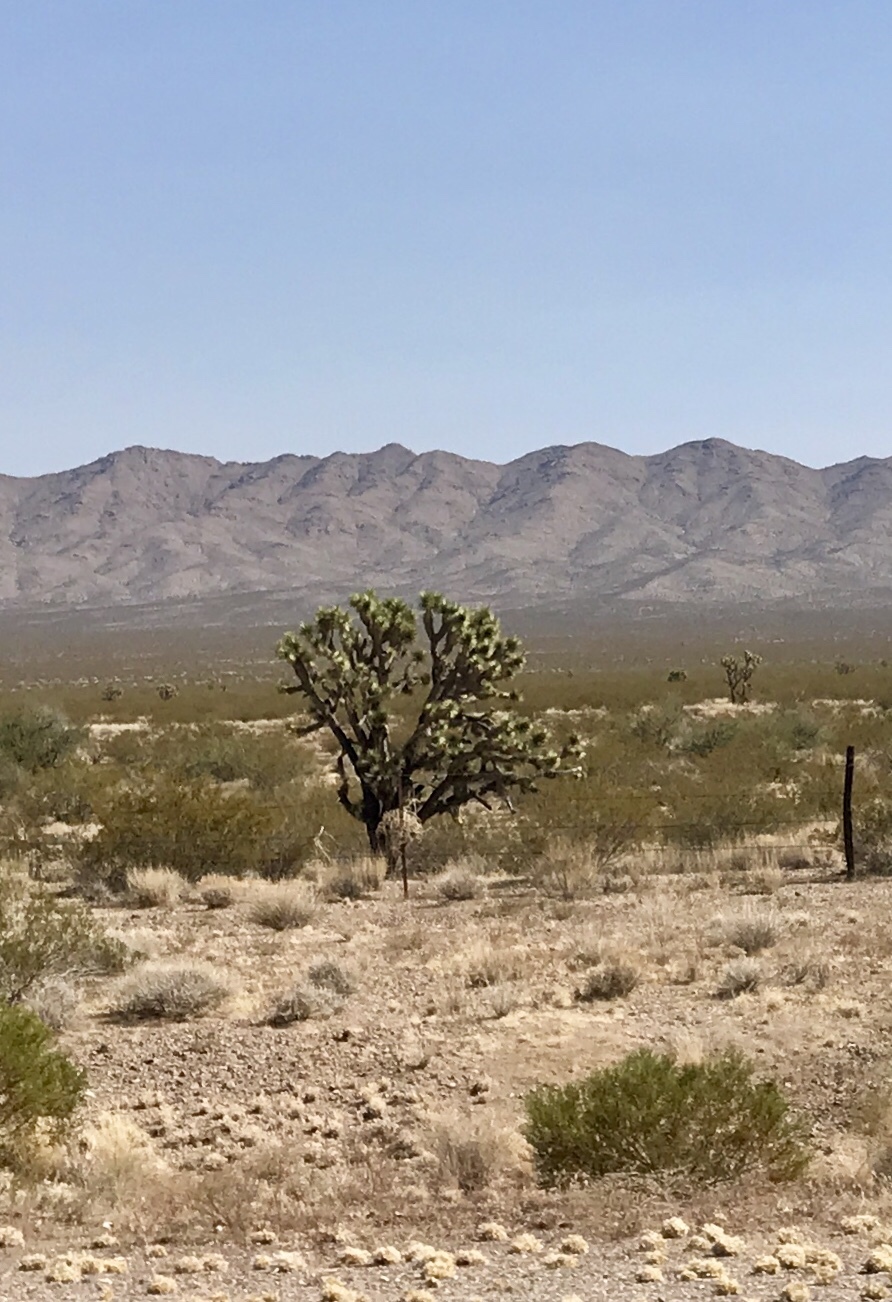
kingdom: Plantae
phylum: Tracheophyta
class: Liliopsida
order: Asparagales
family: Asparagaceae
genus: Yucca
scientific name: Yucca brevifolia
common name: Joshua tree
